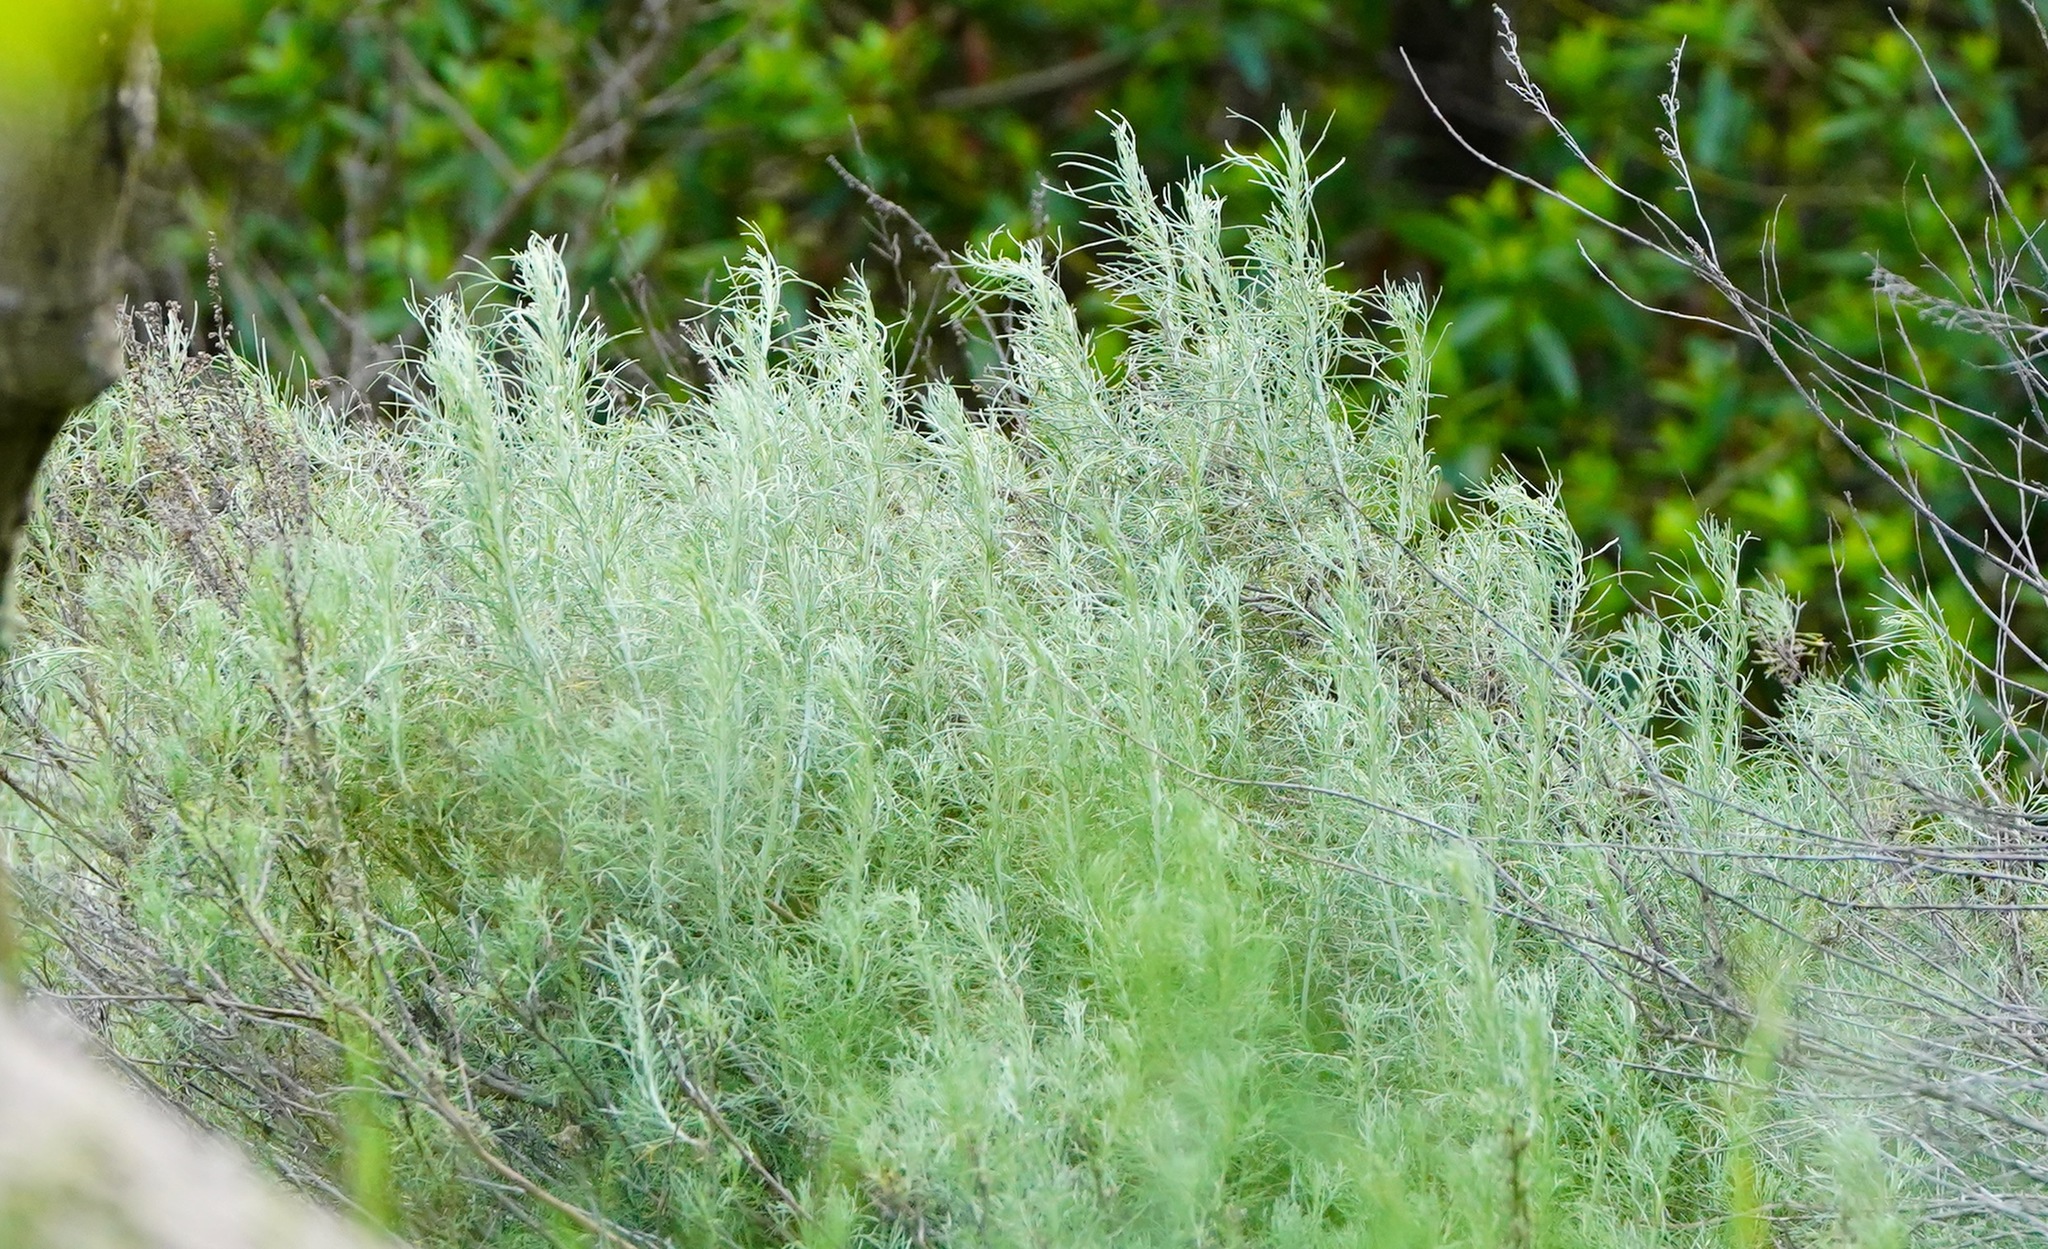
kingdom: Plantae
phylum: Tracheophyta
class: Magnoliopsida
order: Asterales
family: Asteraceae
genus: Artemisia
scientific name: Artemisia californica
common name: California sagebrush
